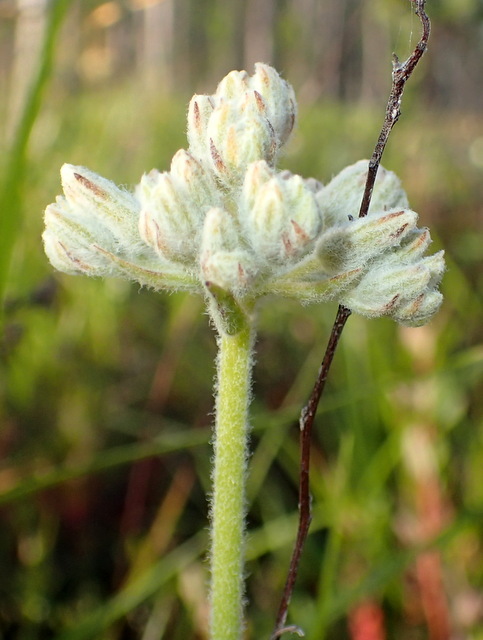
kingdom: Plantae
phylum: Tracheophyta
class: Liliopsida
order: Commelinales
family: Haemodoraceae
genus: Lachnanthes
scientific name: Lachnanthes caroliana
